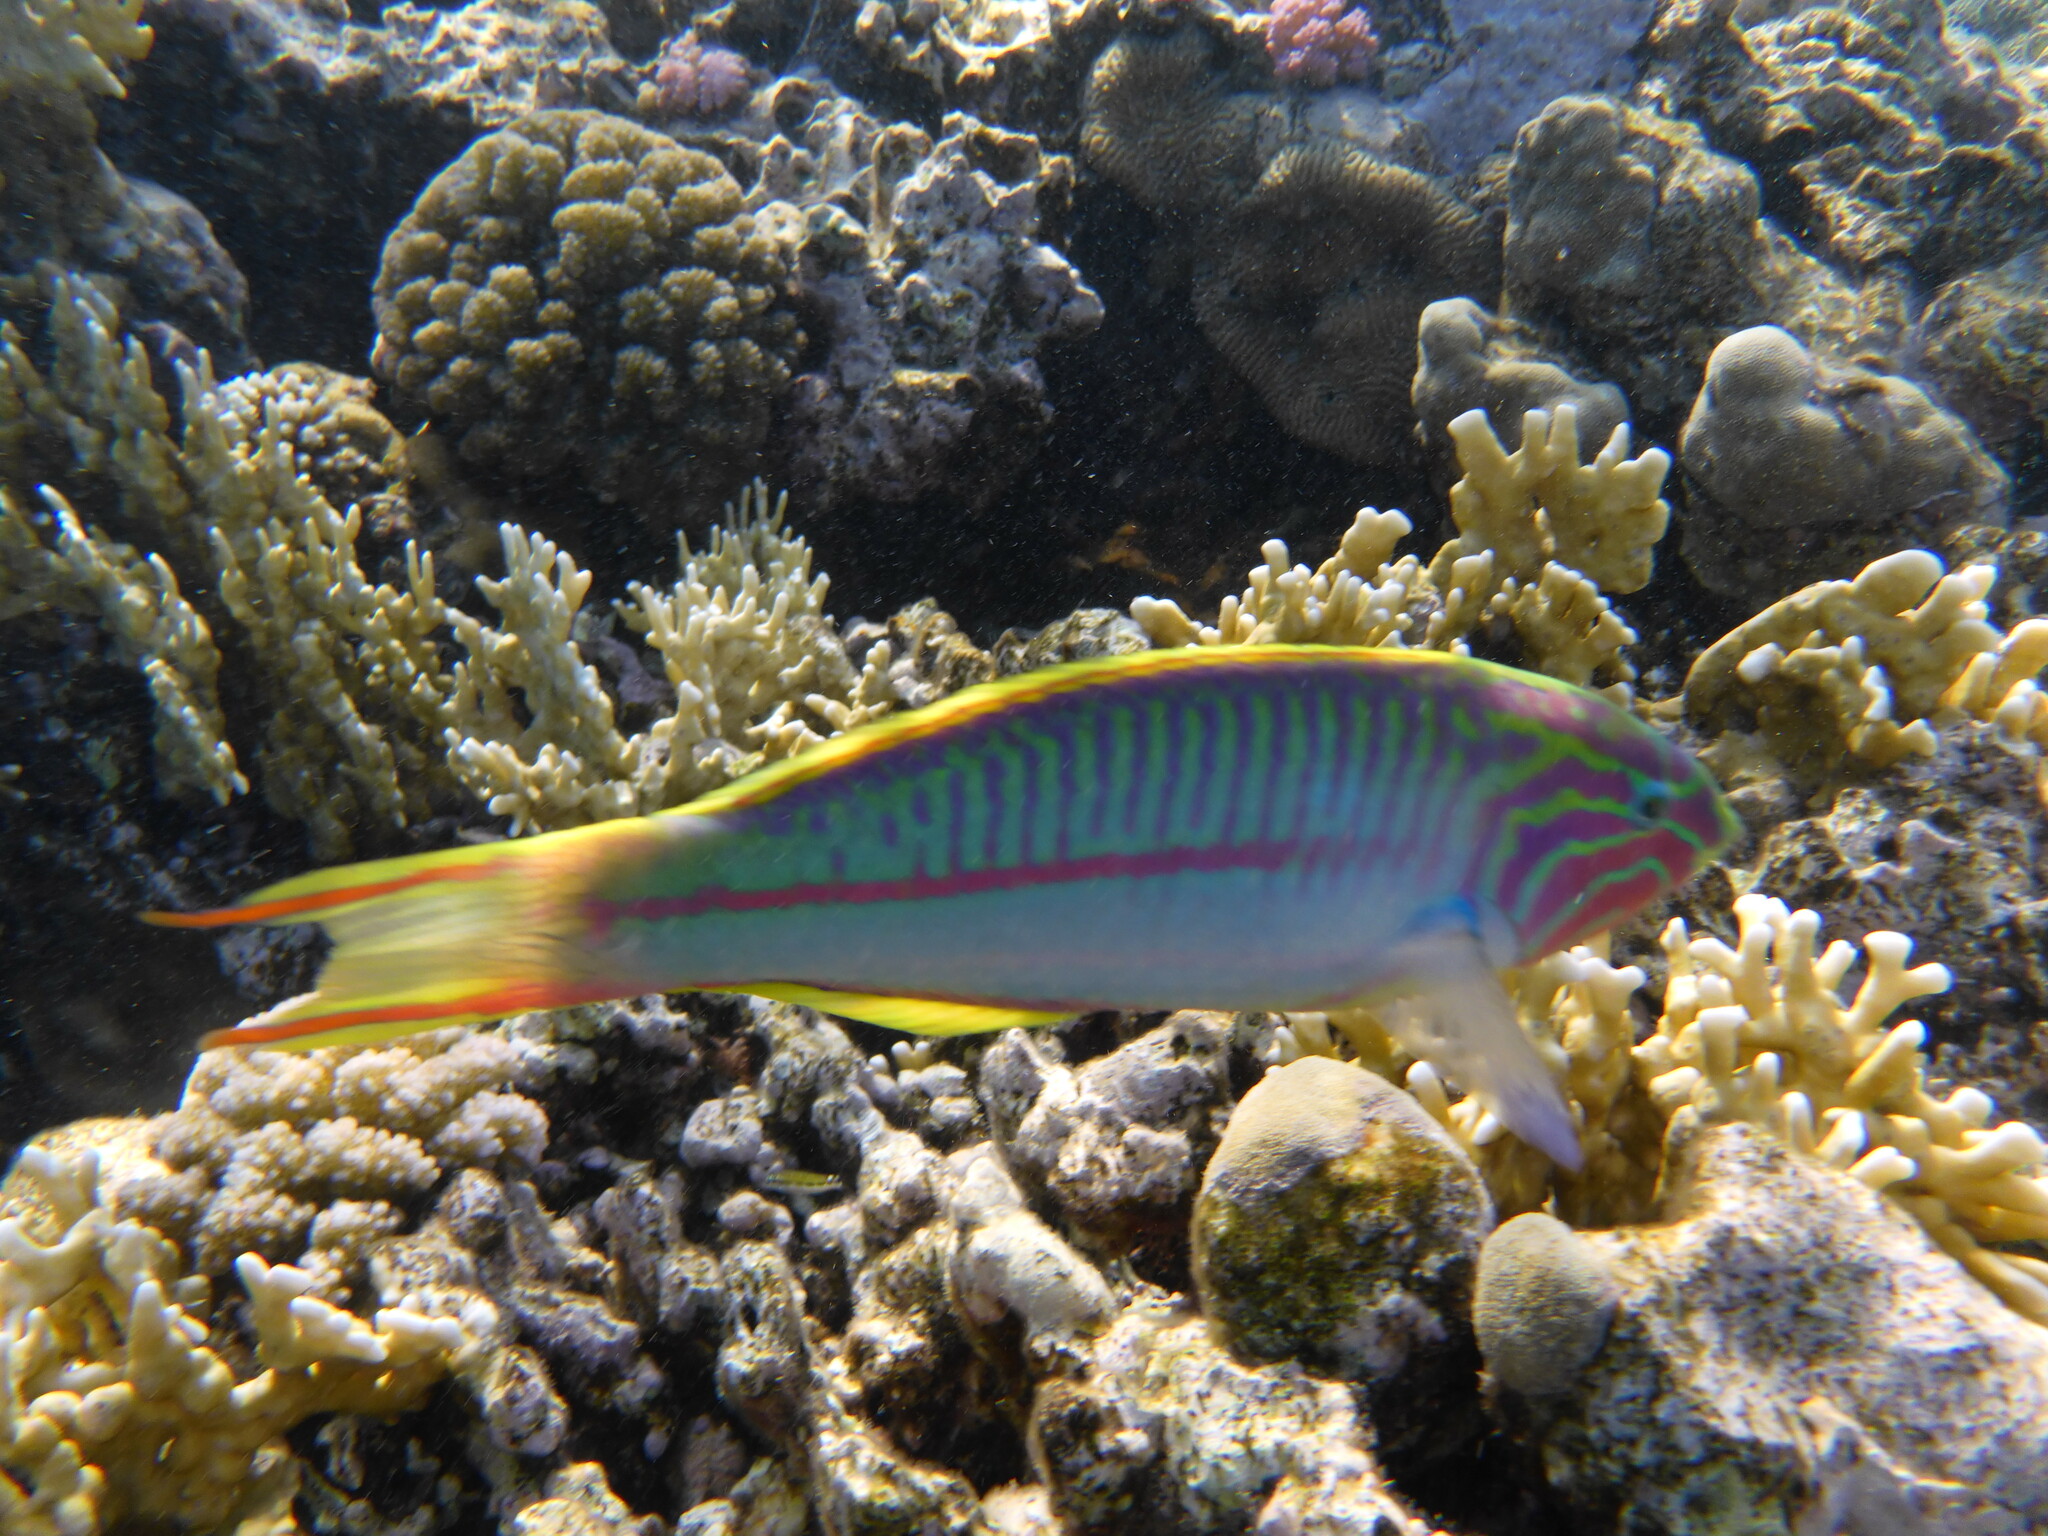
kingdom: Animalia
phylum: Chordata
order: Perciformes
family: Labridae
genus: Thalassoma
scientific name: Thalassoma rueppellii
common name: Klunzinger's wrasse
